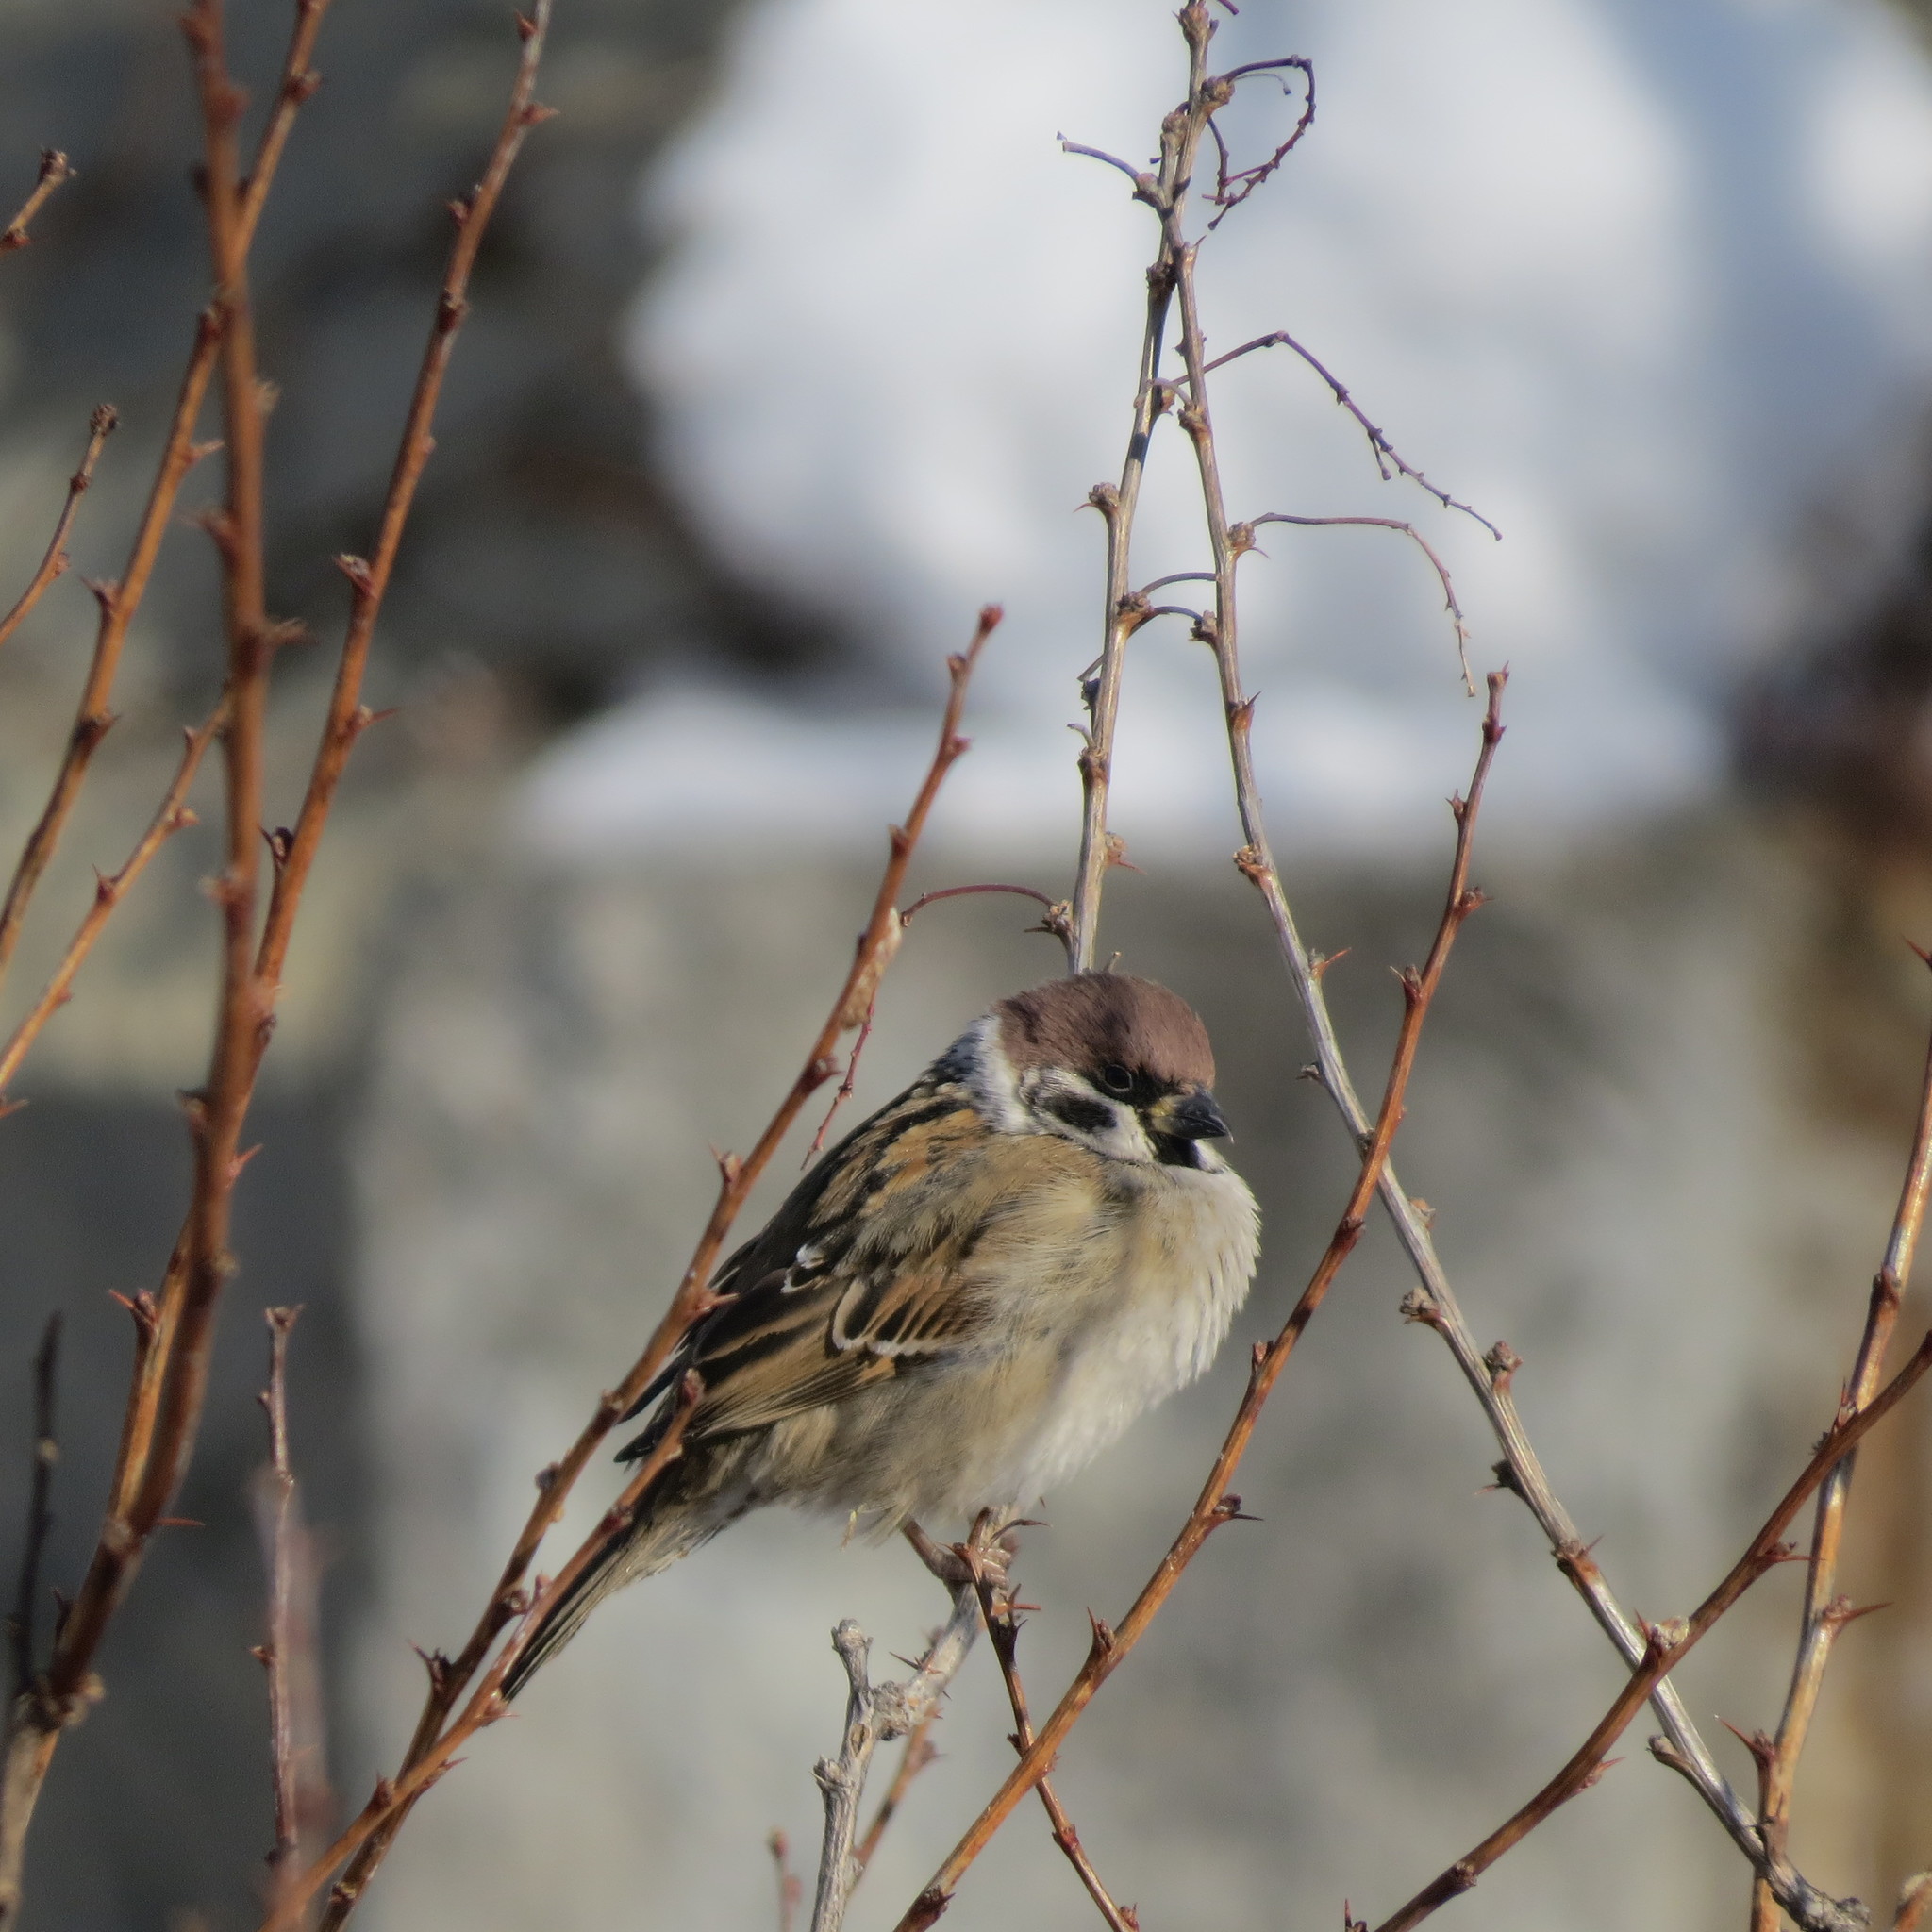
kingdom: Animalia
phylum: Chordata
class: Aves
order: Passeriformes
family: Passeridae
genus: Passer
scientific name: Passer montanus
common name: Eurasian tree sparrow
